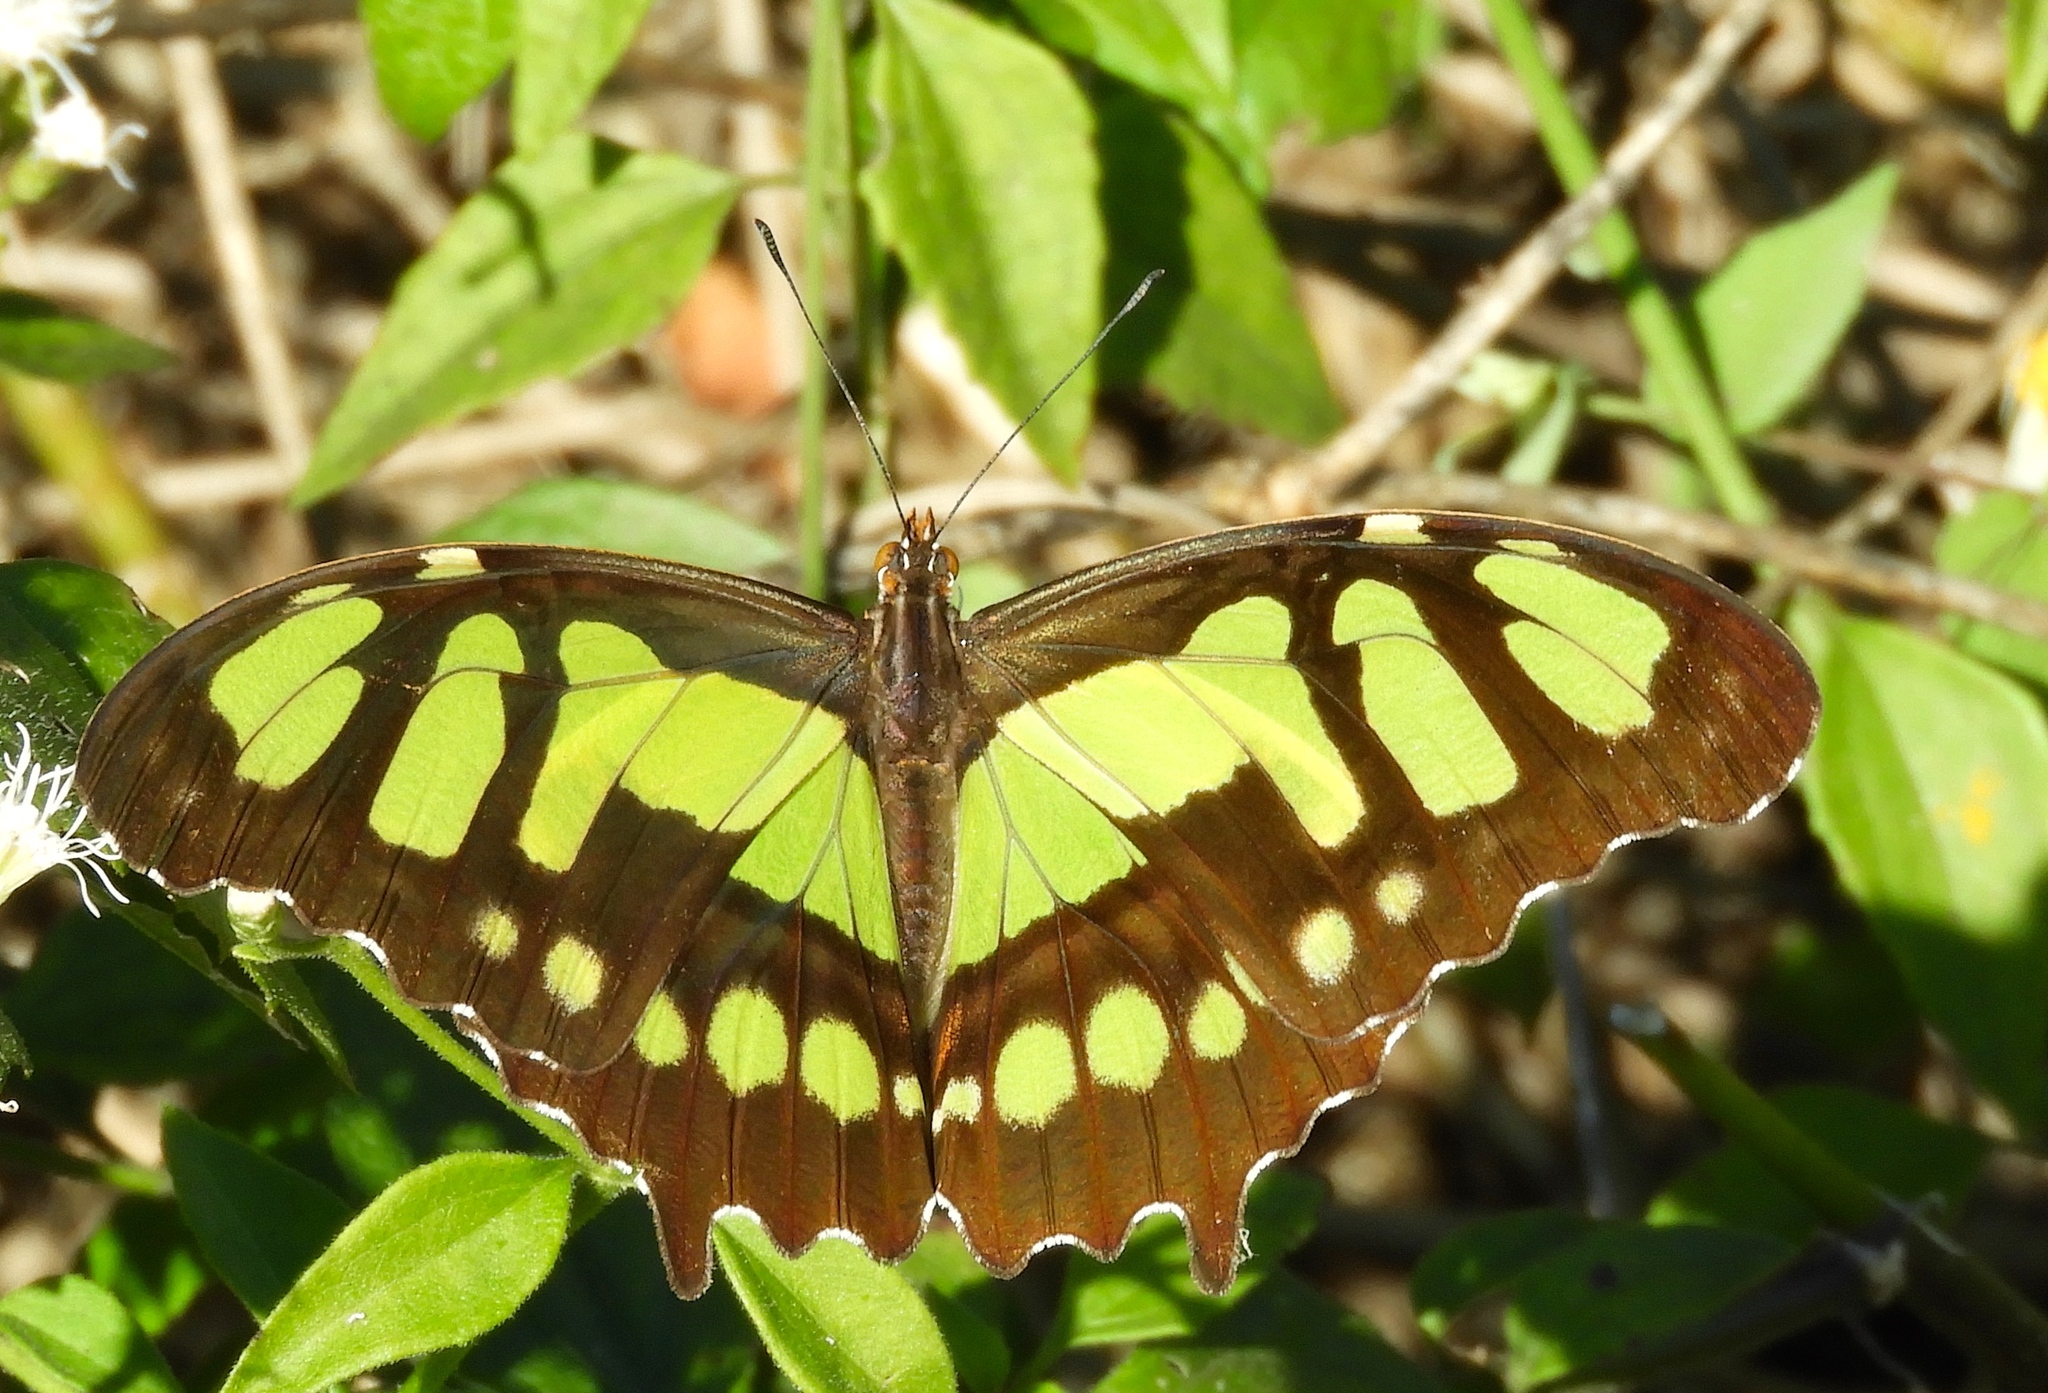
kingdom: Animalia
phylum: Arthropoda
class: Insecta
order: Lepidoptera
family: Nymphalidae
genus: Siproeta
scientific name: Siproeta stelenes
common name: Malachite
